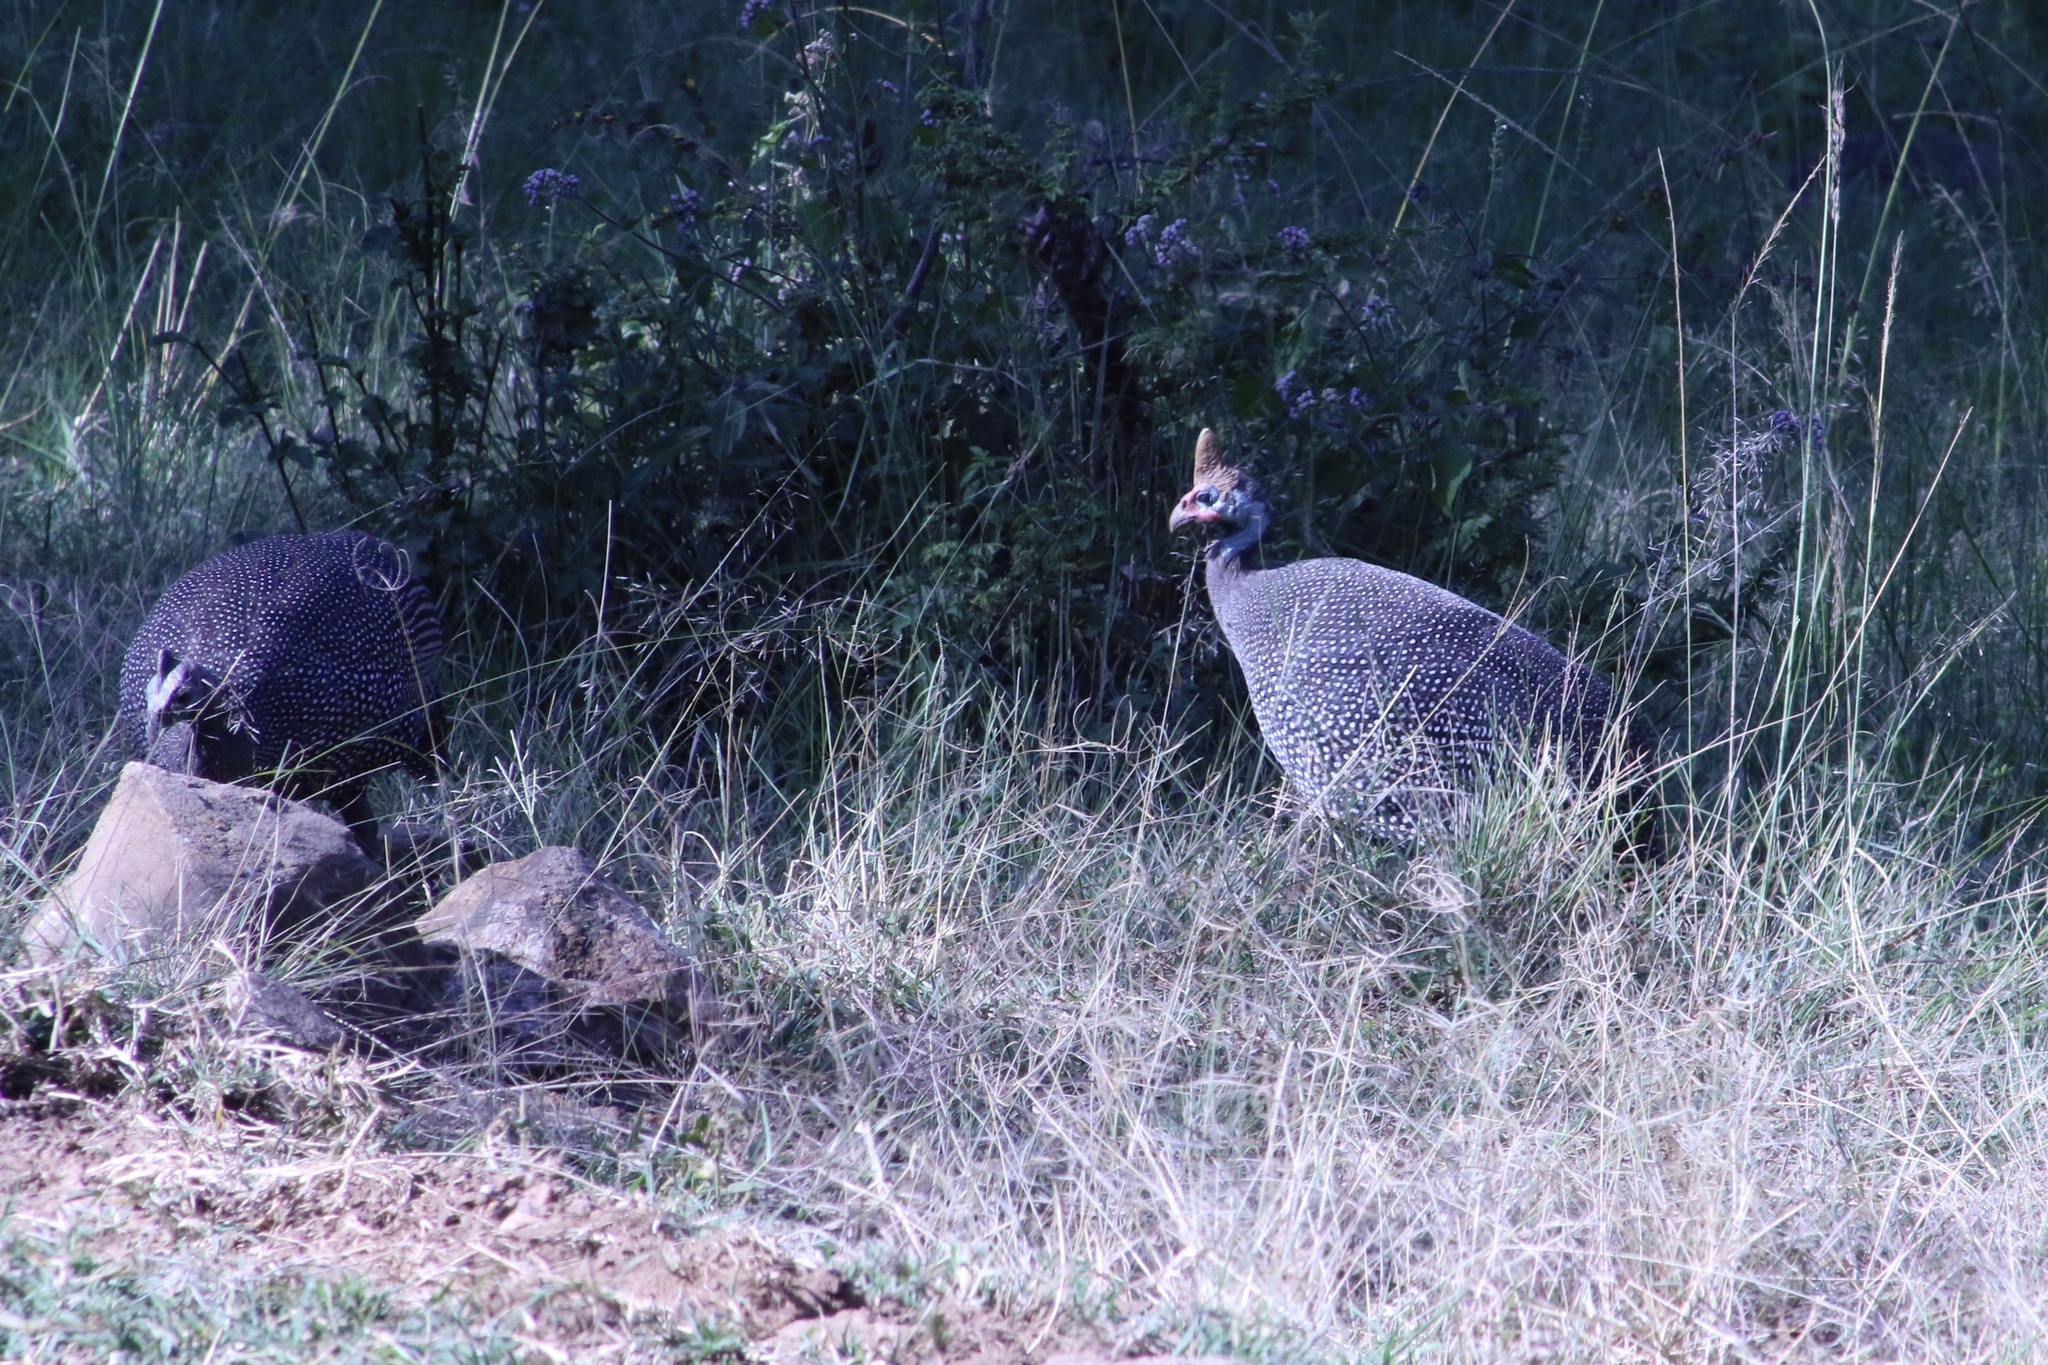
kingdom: Animalia
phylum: Chordata
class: Aves
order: Galliformes
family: Numididae
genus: Numida
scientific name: Numida meleagris
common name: Helmeted guineafowl
